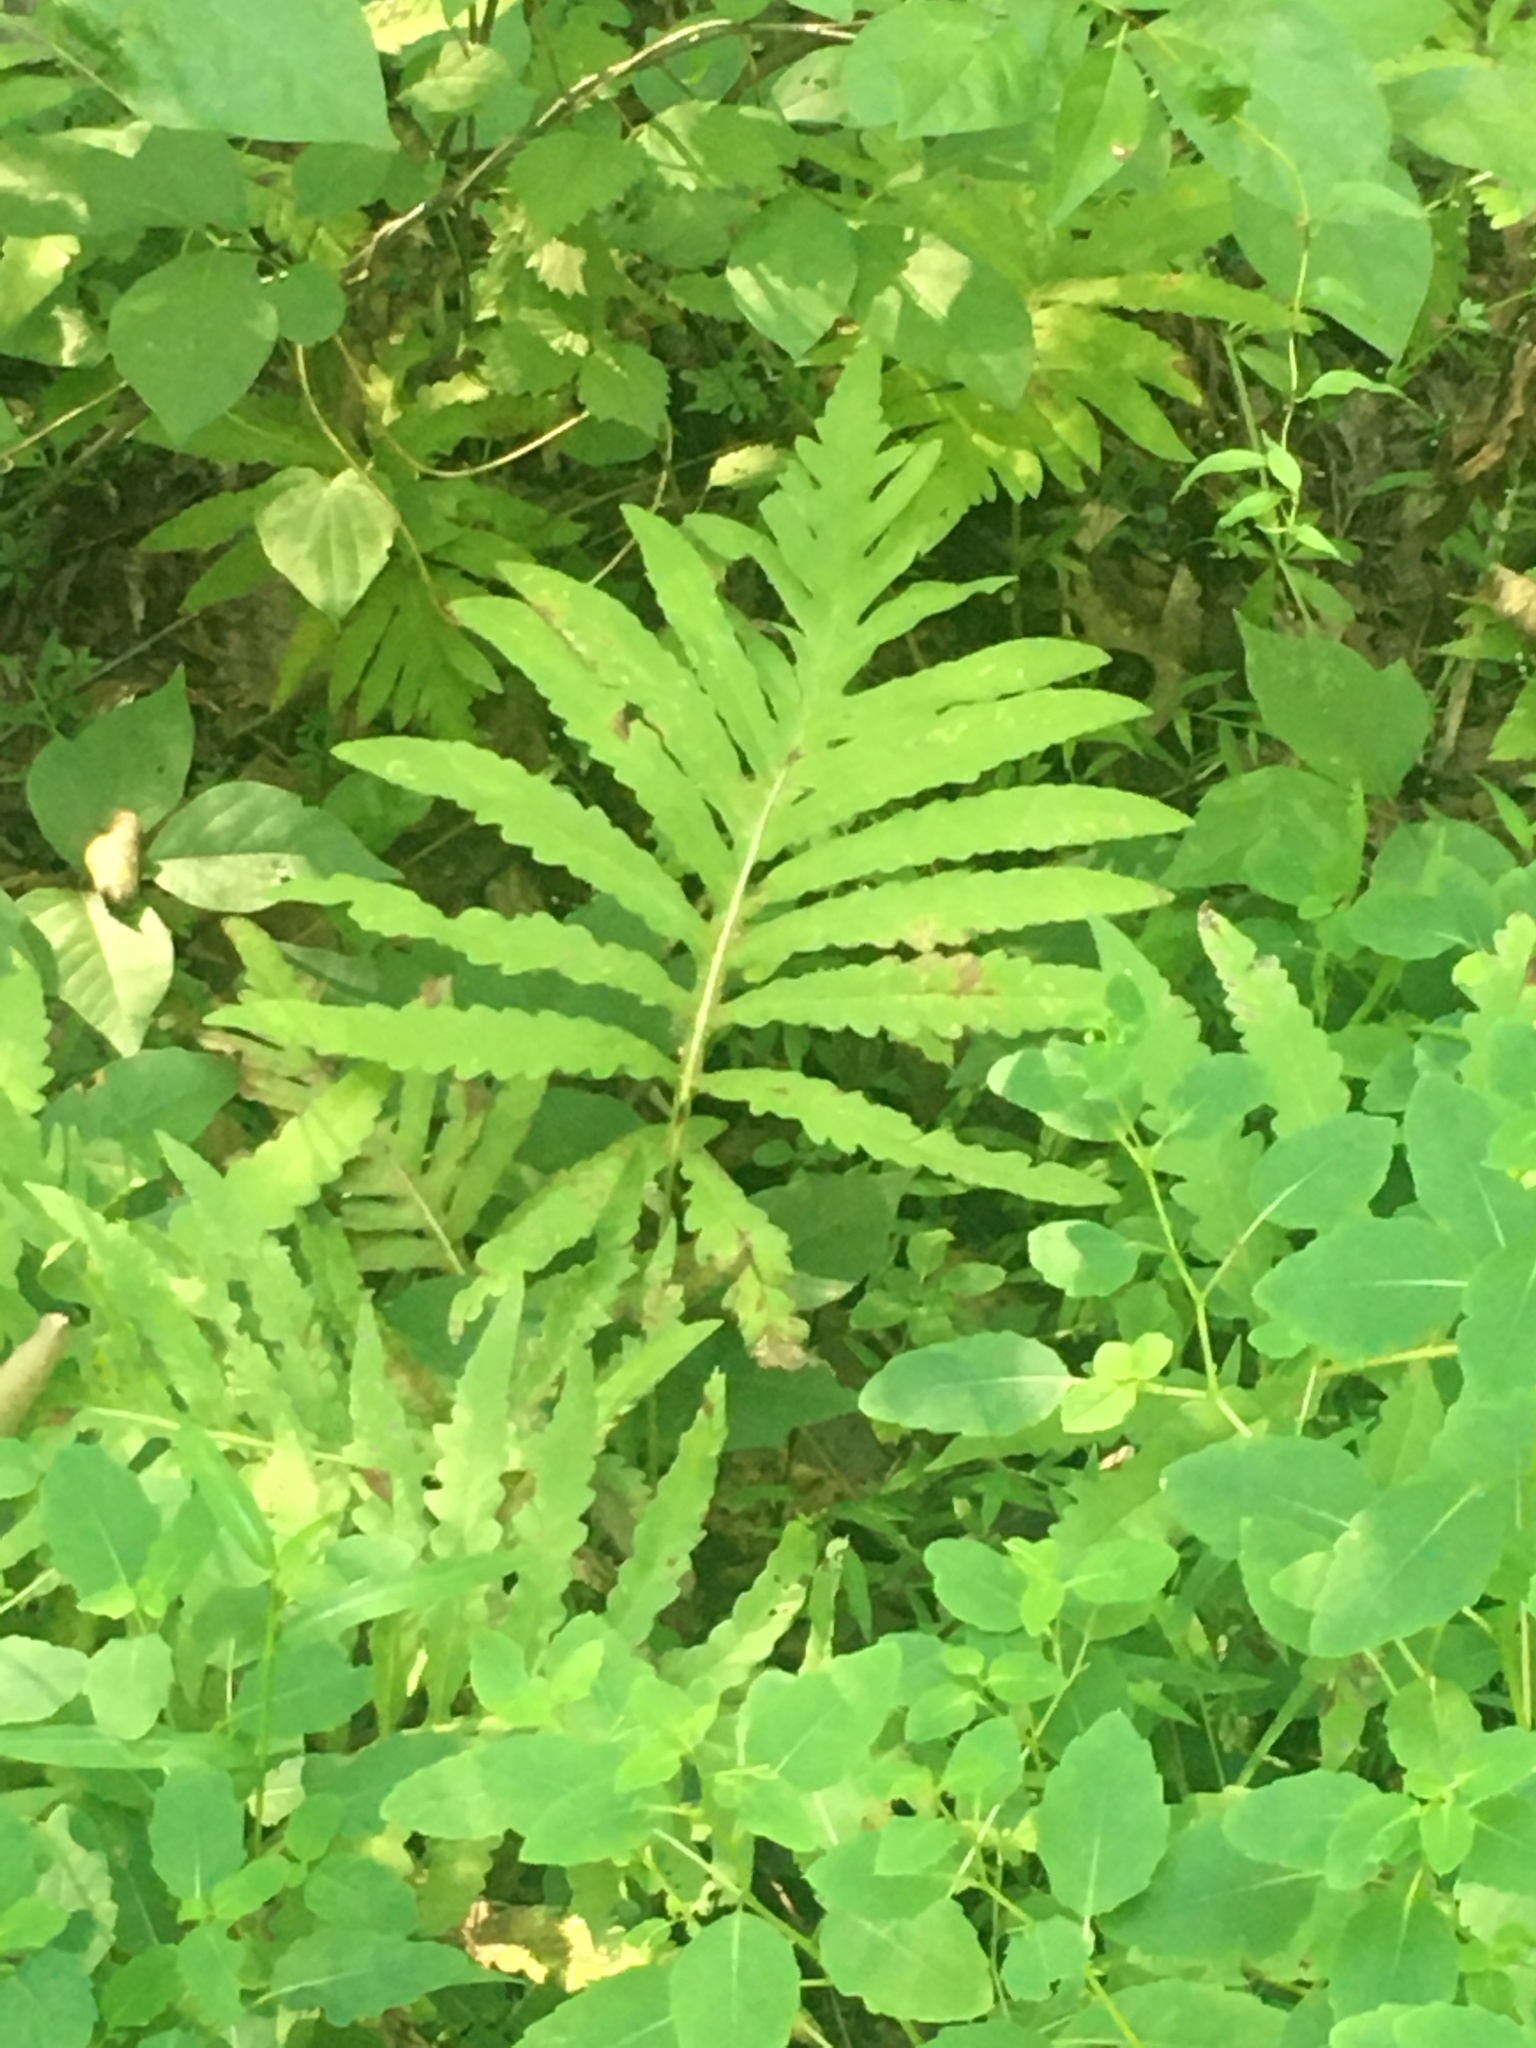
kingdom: Plantae
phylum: Tracheophyta
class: Polypodiopsida
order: Polypodiales
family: Onocleaceae
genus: Onoclea
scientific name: Onoclea sensibilis
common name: Sensitive fern
